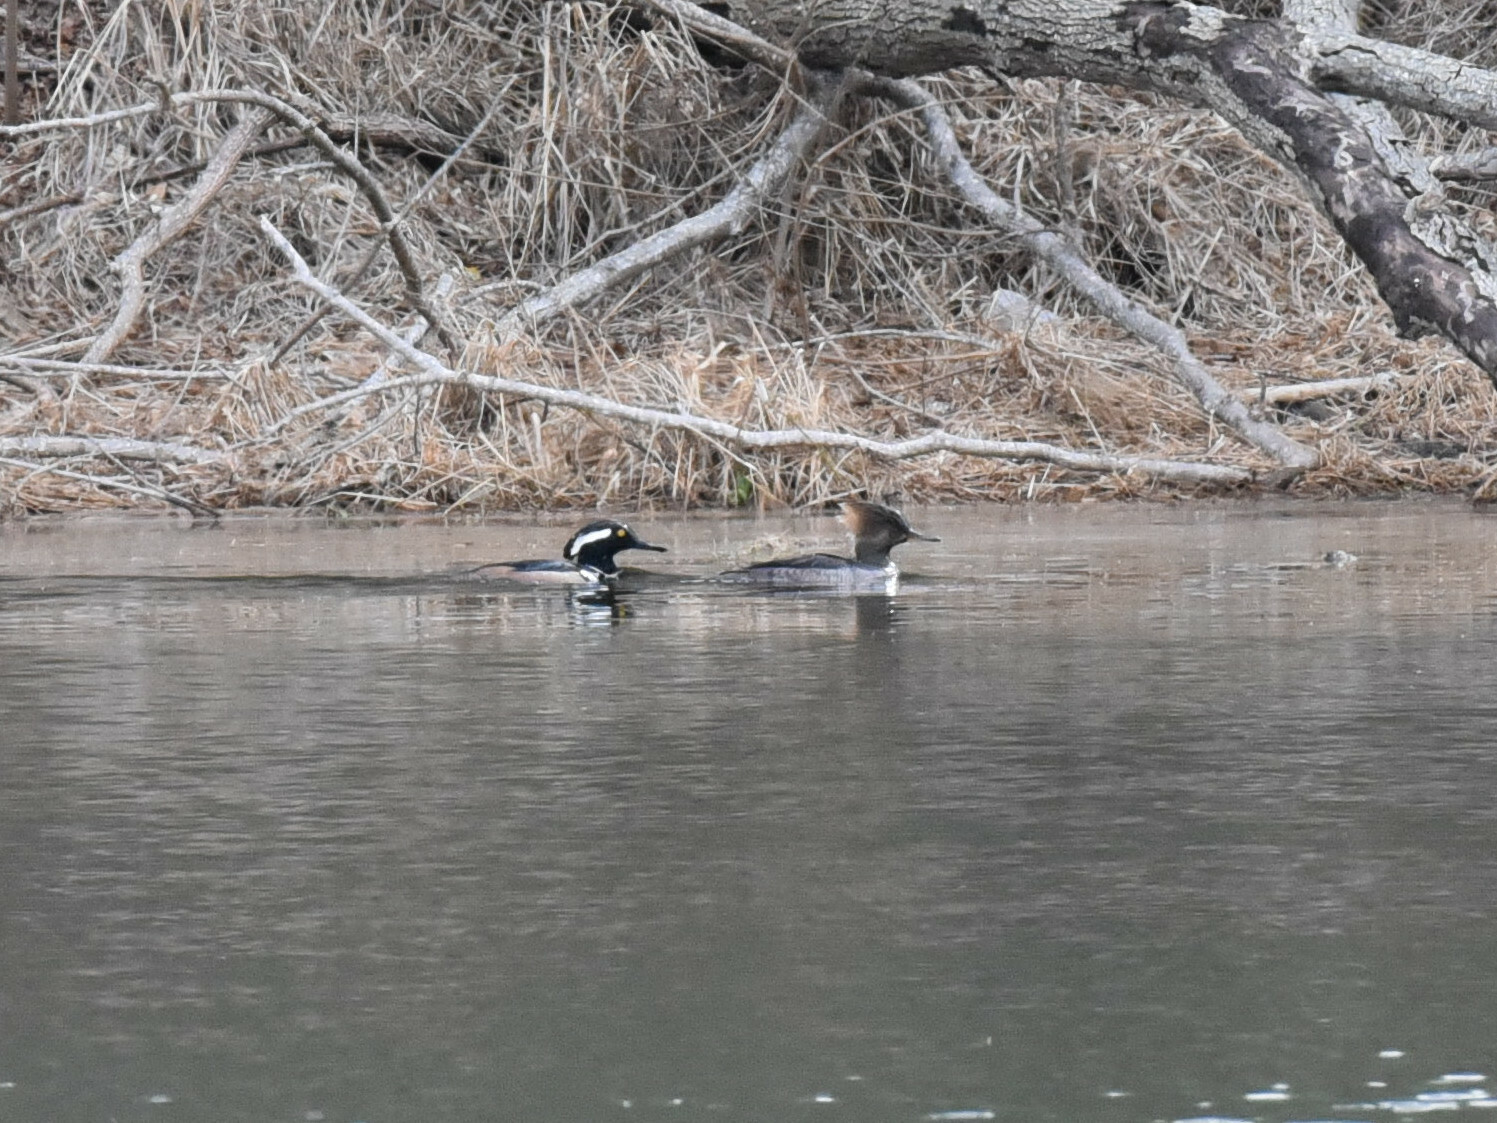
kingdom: Animalia
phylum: Chordata
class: Aves
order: Anseriformes
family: Anatidae
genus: Lophodytes
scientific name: Lophodytes cucullatus
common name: Hooded merganser
